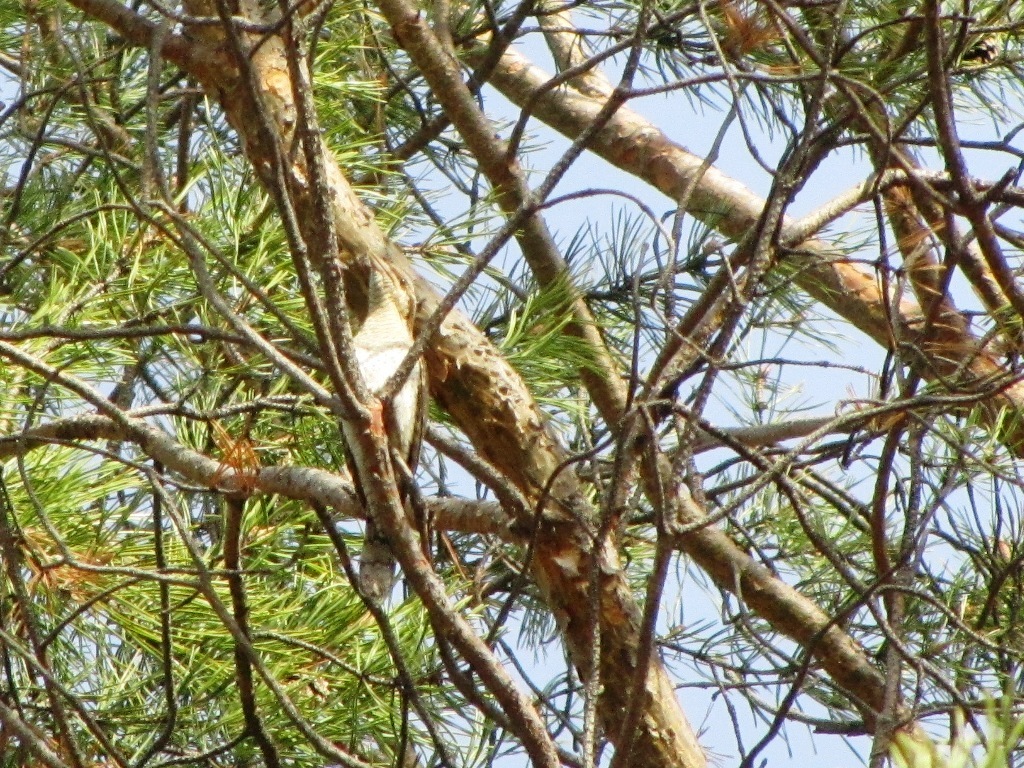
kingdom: Animalia
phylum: Chordata
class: Aves
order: Piciformes
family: Picidae
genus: Jynx
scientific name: Jynx torquilla
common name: Eurasian wryneck
